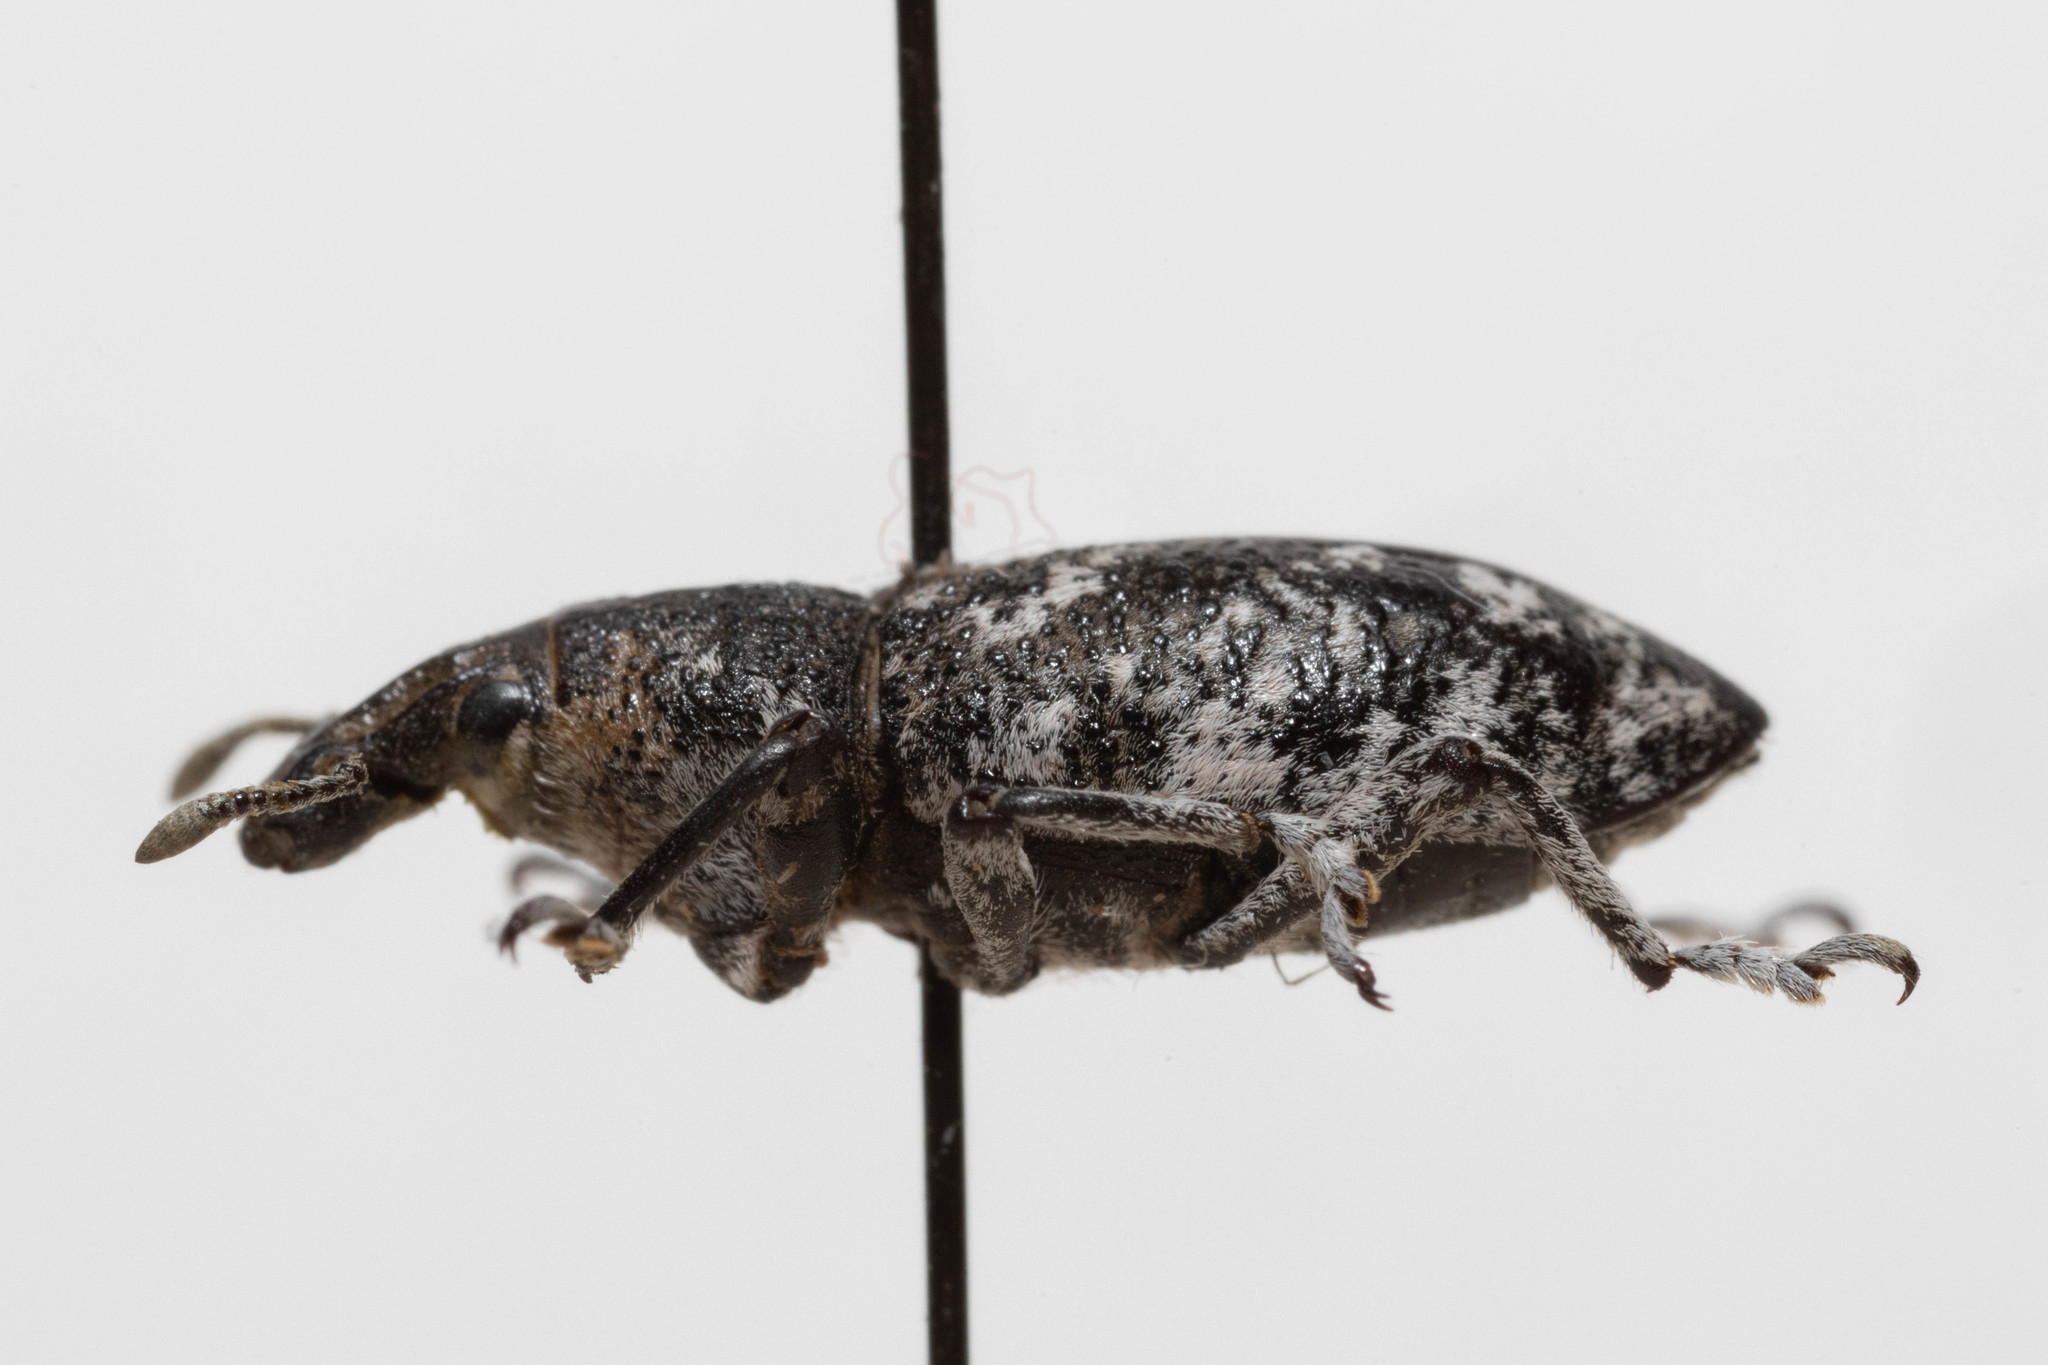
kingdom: Animalia
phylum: Arthropoda
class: Insecta
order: Coleoptera
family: Curculionidae
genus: Cleonus
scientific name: Cleonus achates
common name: Root weevil
